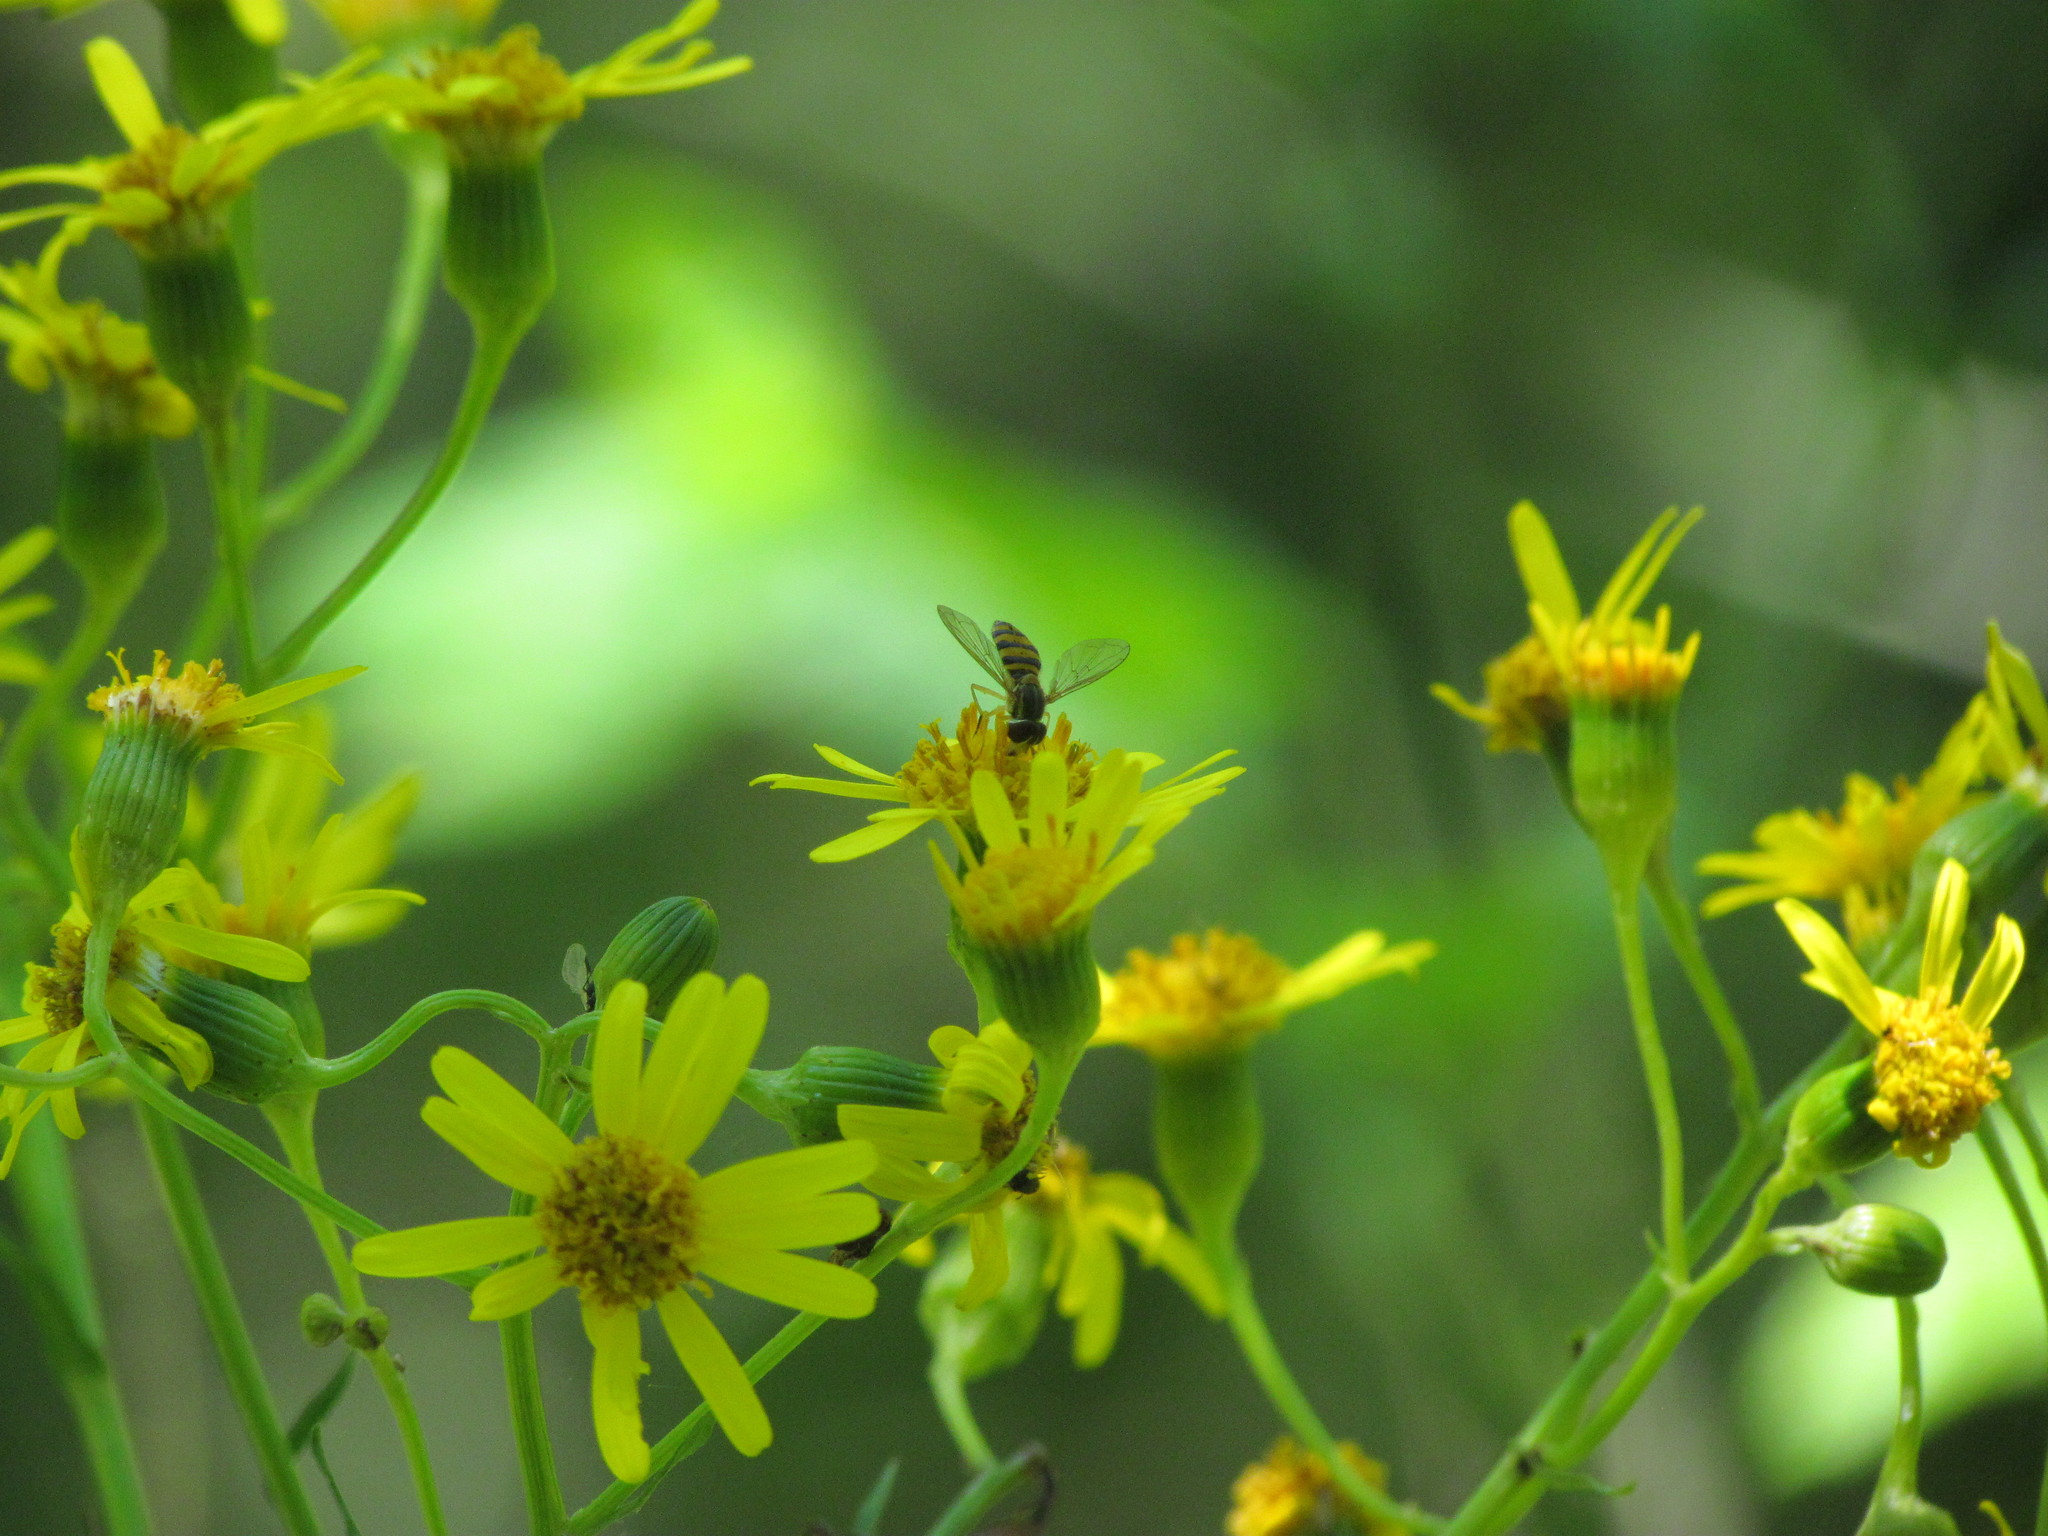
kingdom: Animalia
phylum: Arthropoda
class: Insecta
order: Diptera
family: Syrphidae
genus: Toxomerus
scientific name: Toxomerus
